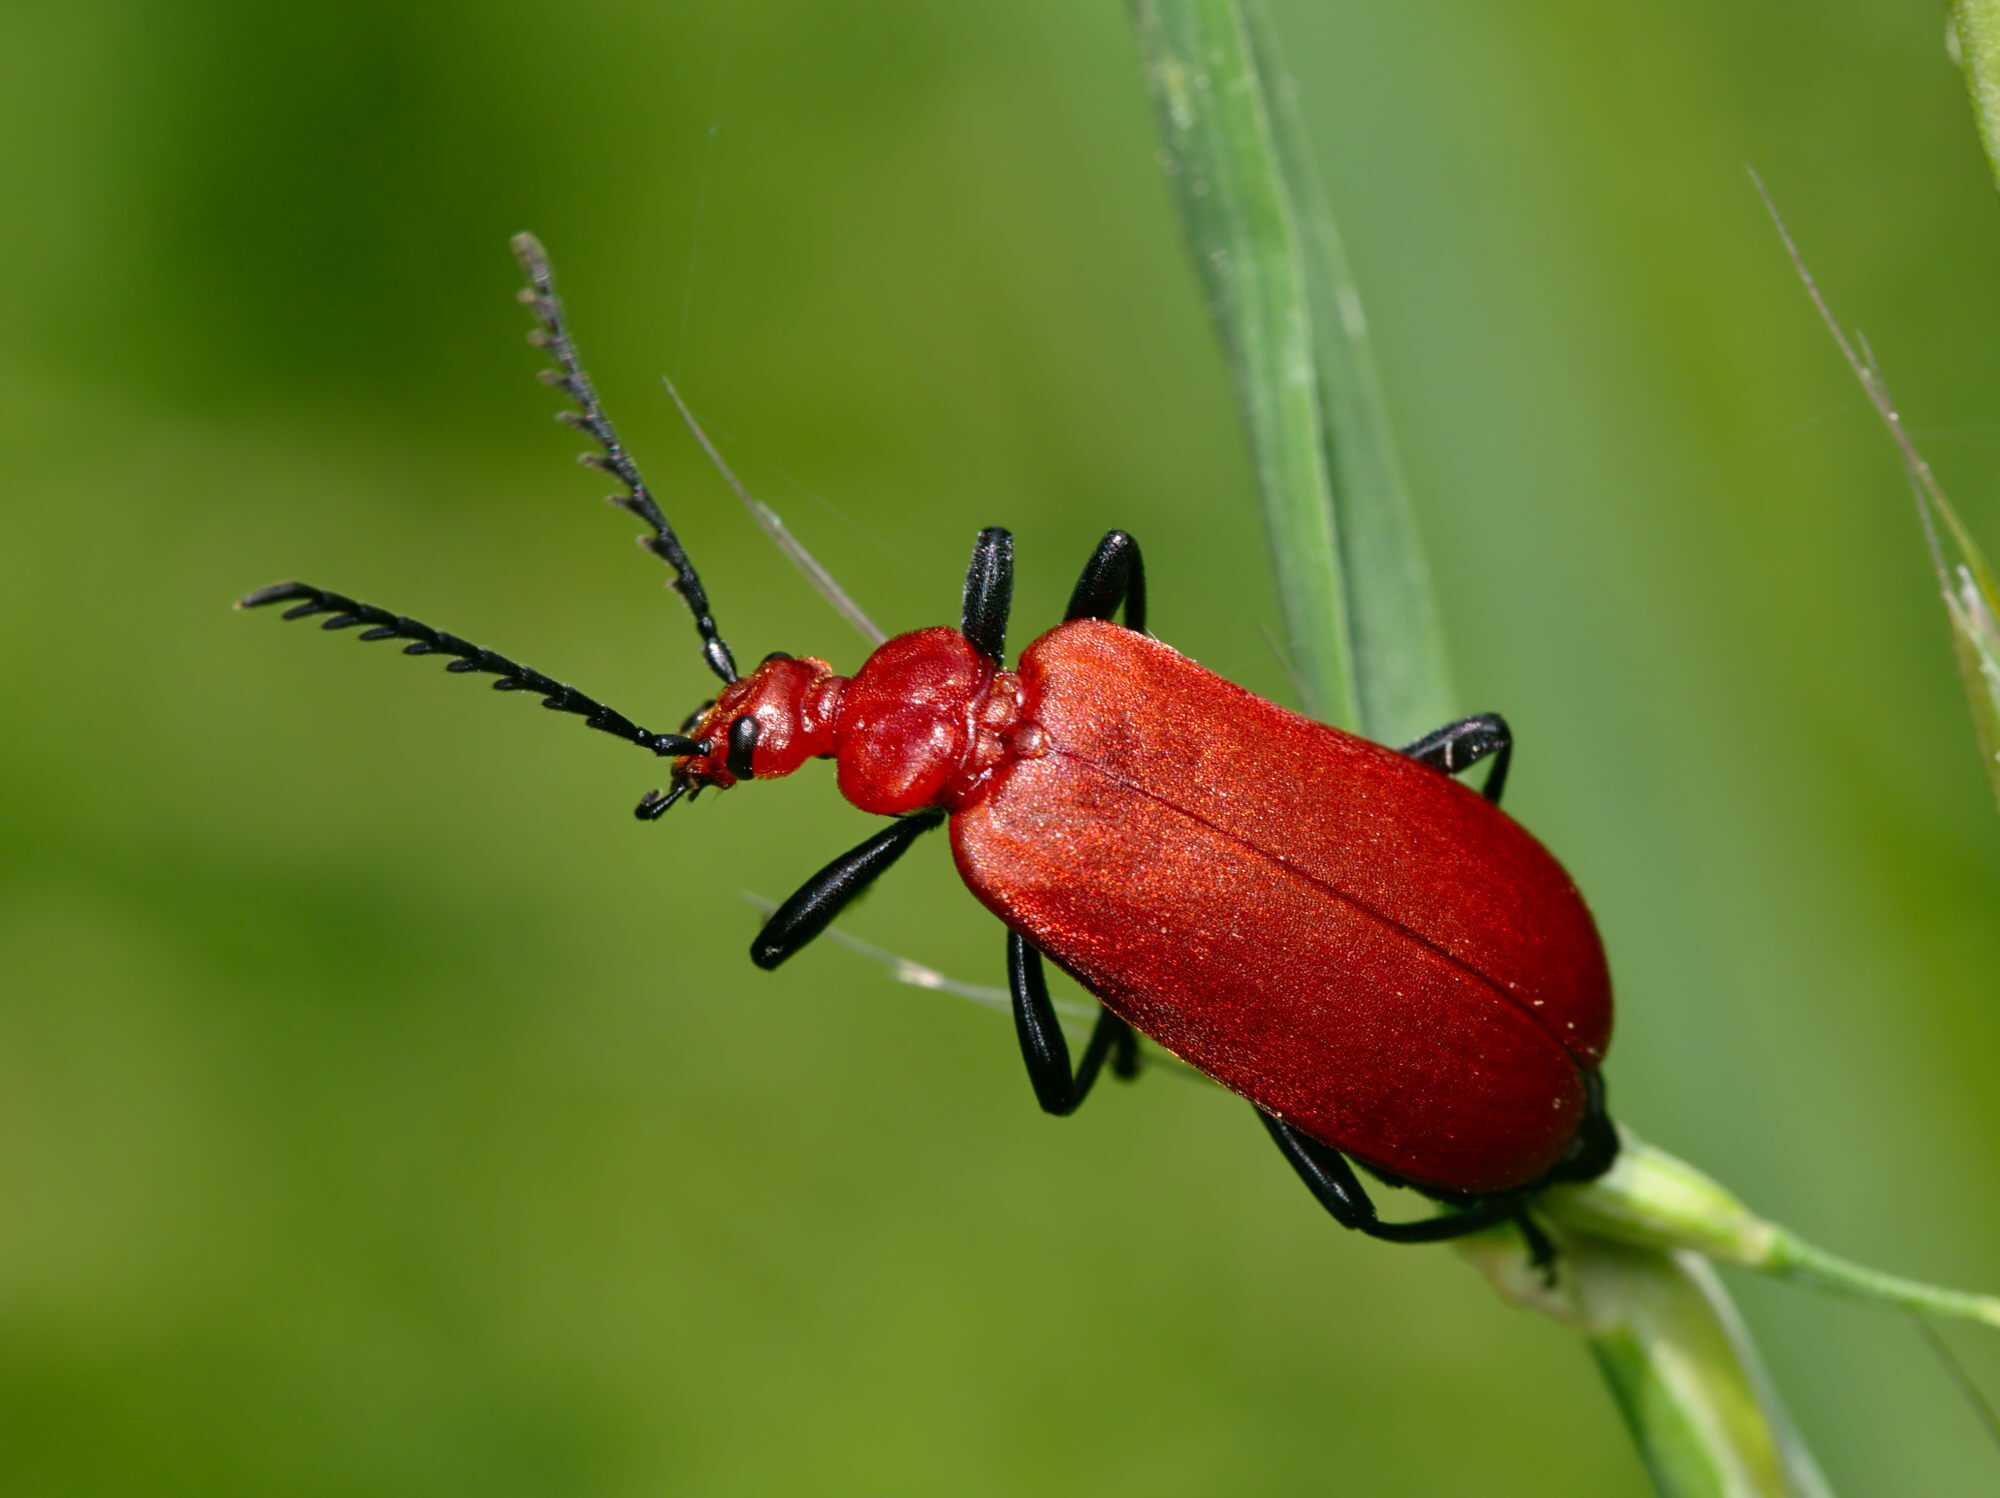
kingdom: Animalia
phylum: Arthropoda
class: Insecta
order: Coleoptera
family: Pyrochroidae
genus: Pyrochroa
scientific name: Pyrochroa serraticornis
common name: Red-headed cardinal beetle
